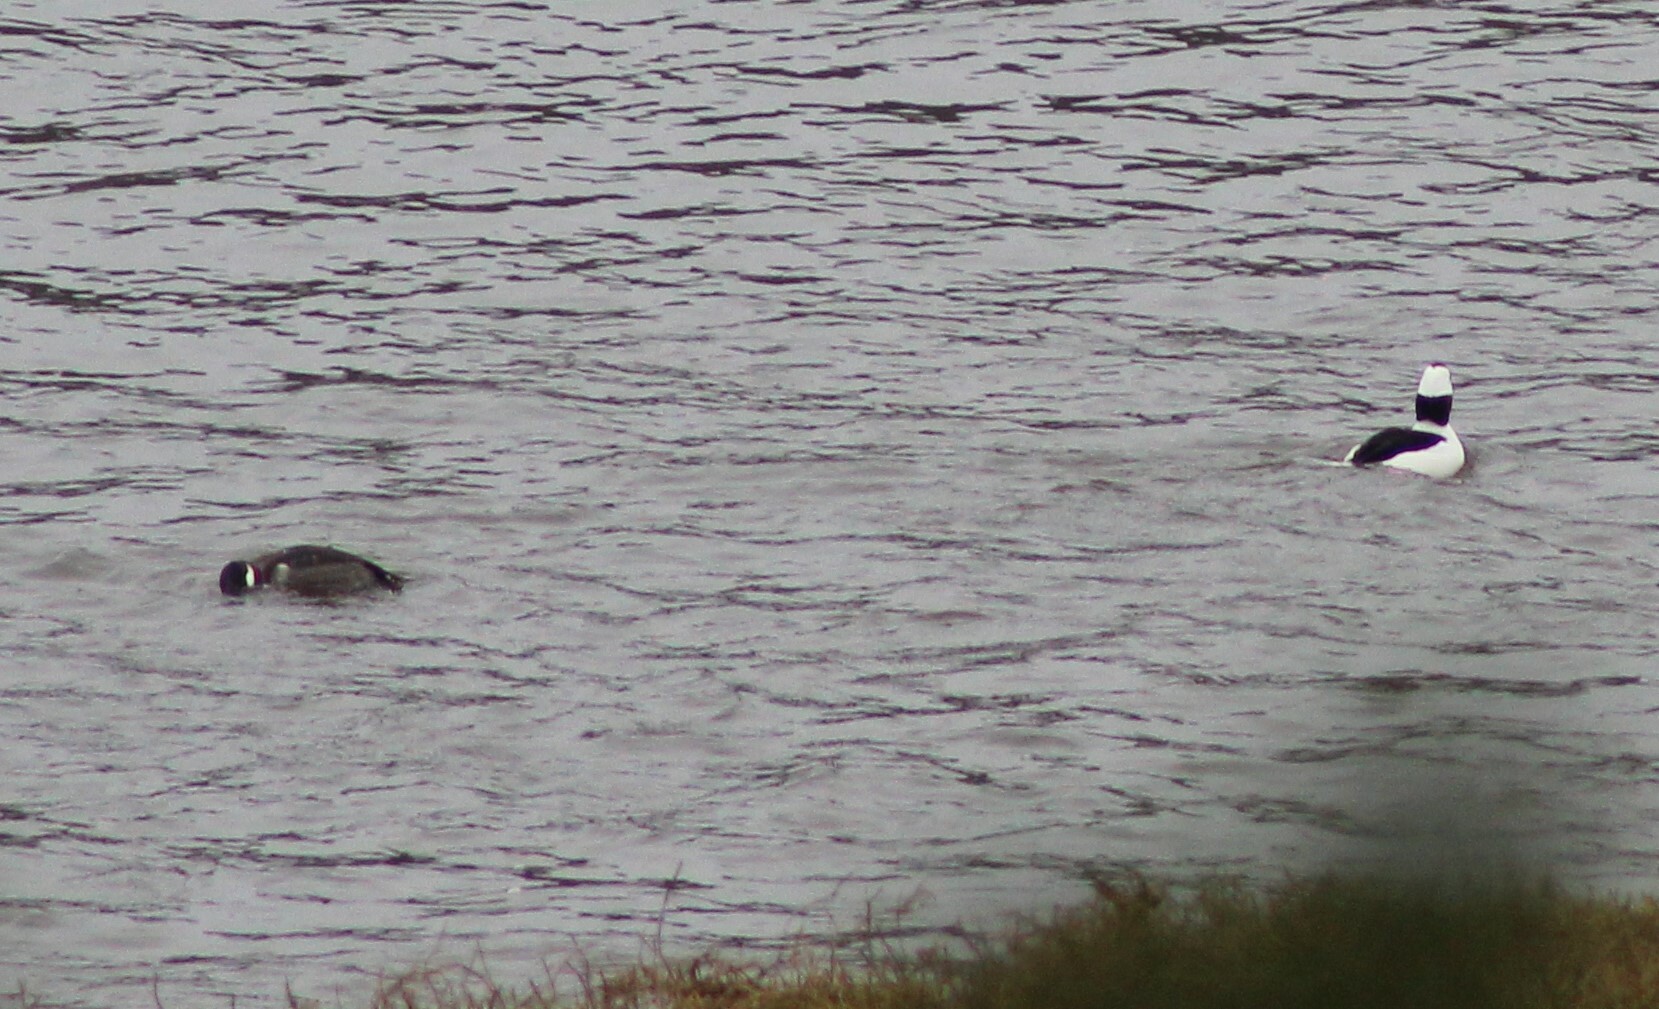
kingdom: Animalia
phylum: Chordata
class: Aves
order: Anseriformes
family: Anatidae
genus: Bucephala
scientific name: Bucephala albeola
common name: Bufflehead
